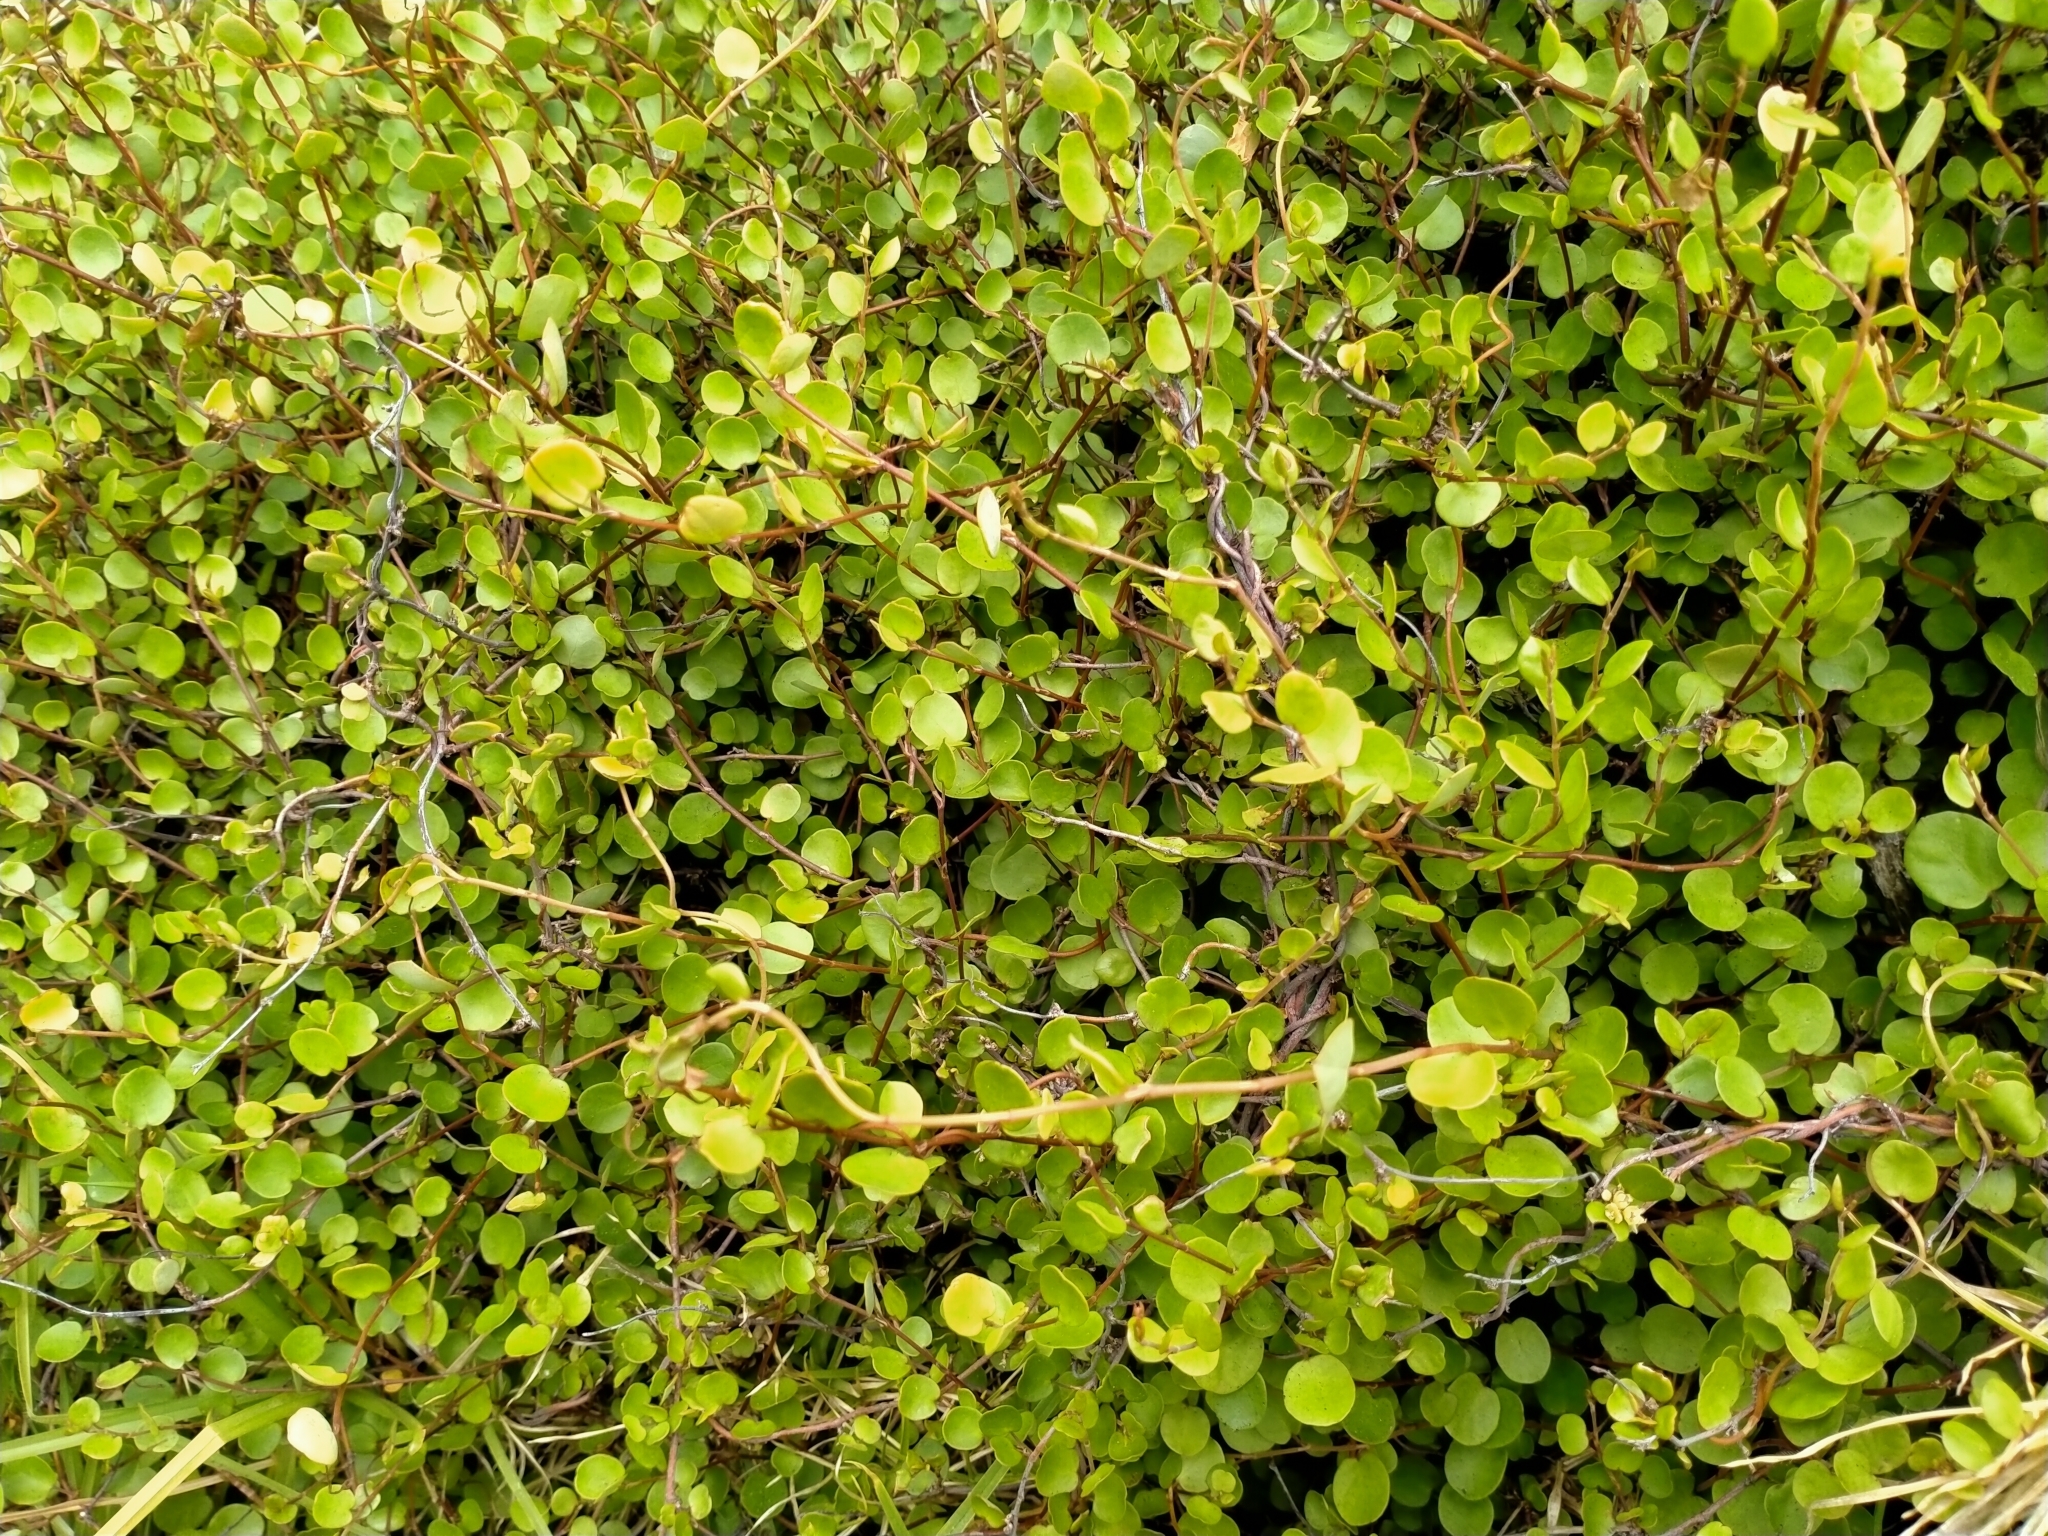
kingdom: Plantae
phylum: Tracheophyta
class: Magnoliopsida
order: Caryophyllales
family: Polygonaceae
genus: Muehlenbeckia
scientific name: Muehlenbeckia complexa
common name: Wireplant
